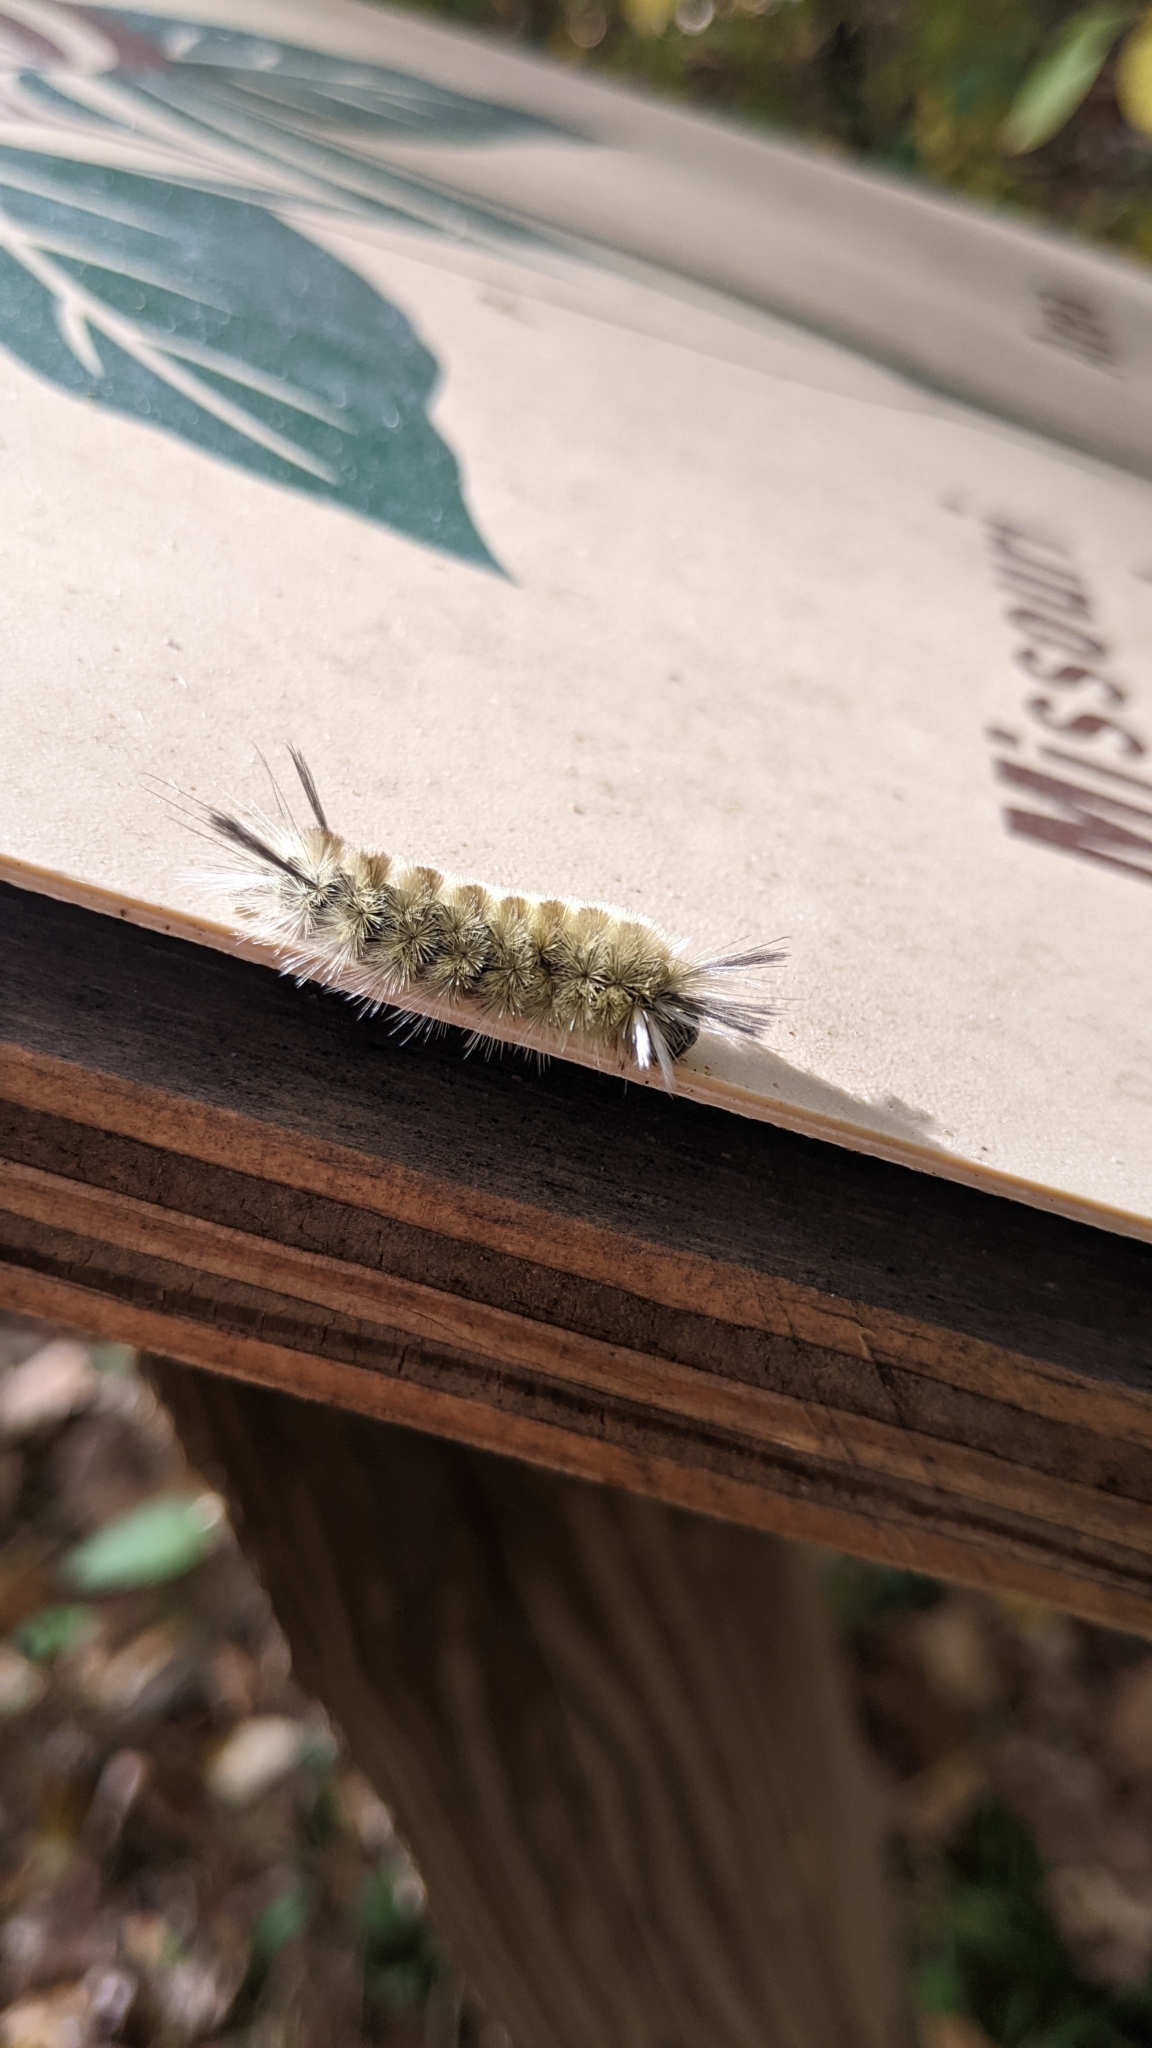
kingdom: Animalia
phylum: Arthropoda
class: Insecta
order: Lepidoptera
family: Erebidae
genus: Halysidota
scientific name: Halysidota tessellaris
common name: Banded tussock moth
